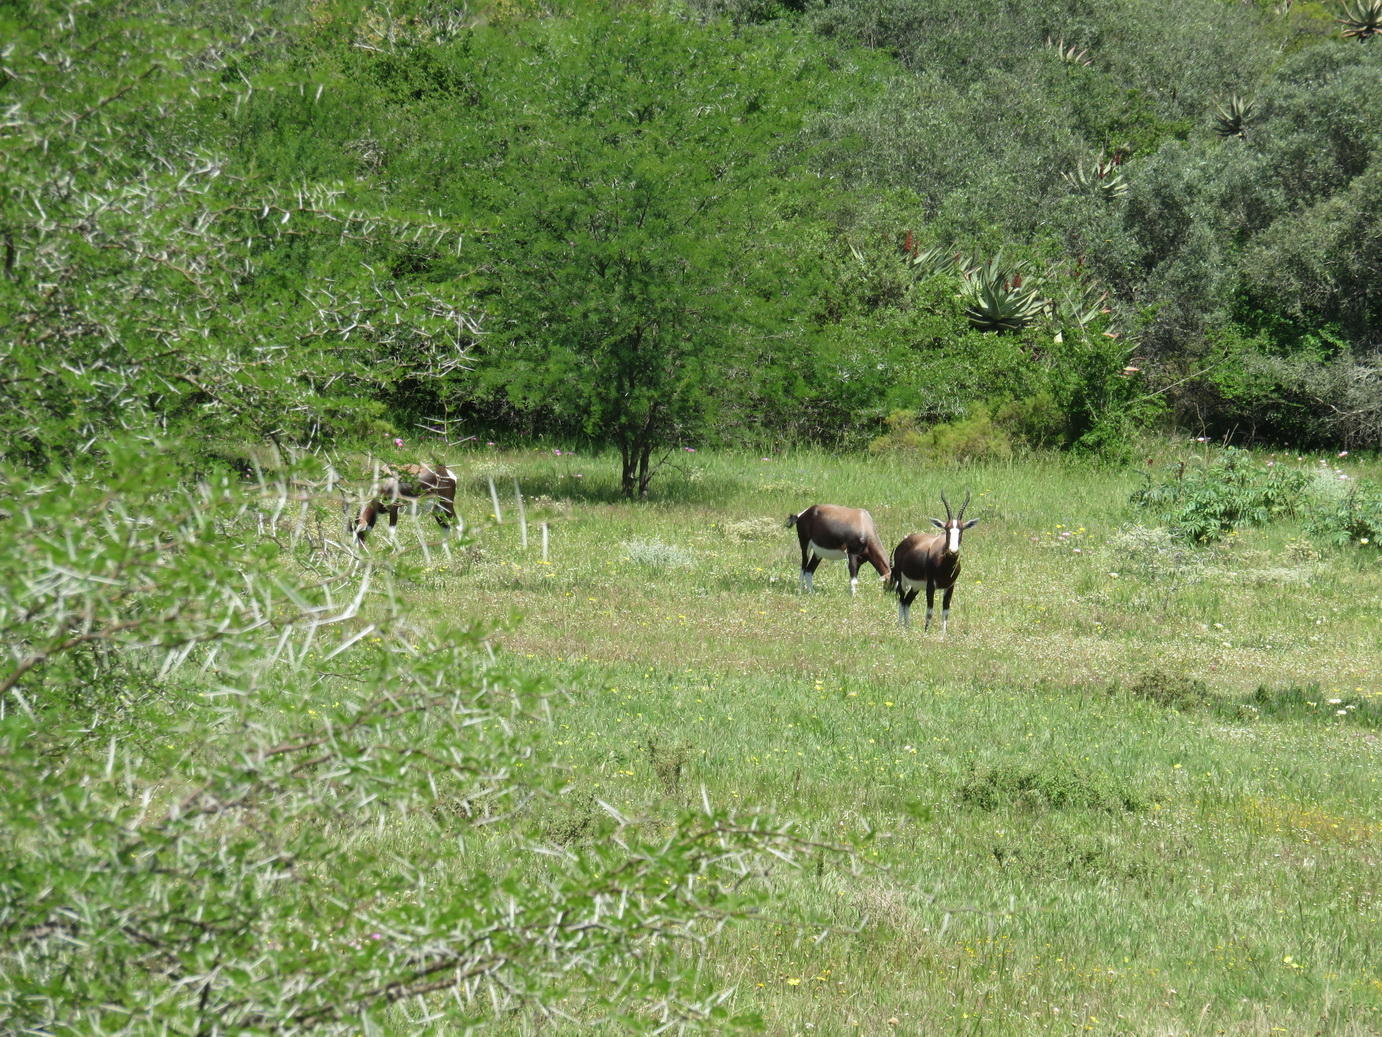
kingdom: Animalia
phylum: Chordata
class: Mammalia
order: Artiodactyla
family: Bovidae
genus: Damaliscus
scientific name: Damaliscus pygargus
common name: Bontebok
